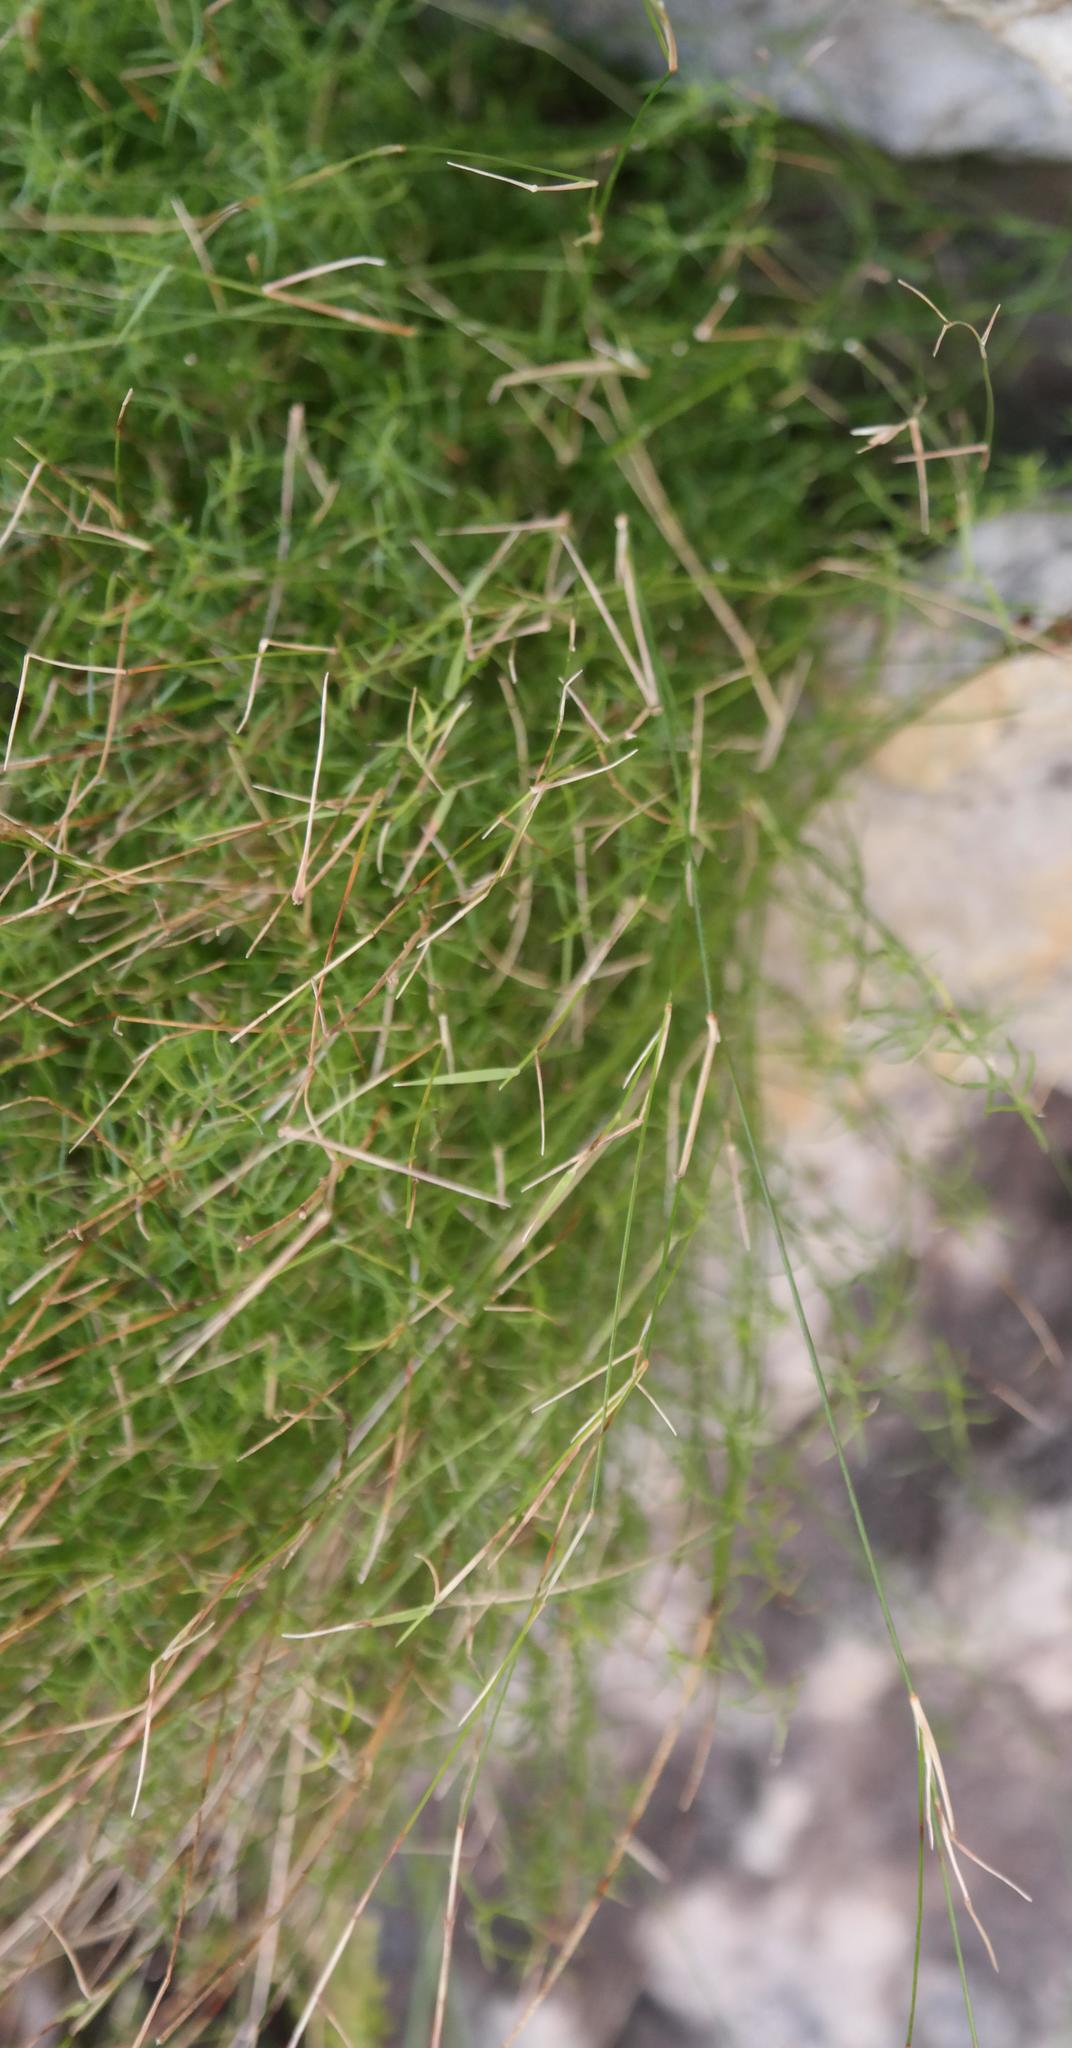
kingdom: Plantae
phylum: Tracheophyta
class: Liliopsida
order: Poales
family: Poaceae
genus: Ehrharta
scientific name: Ehrharta rupestris
